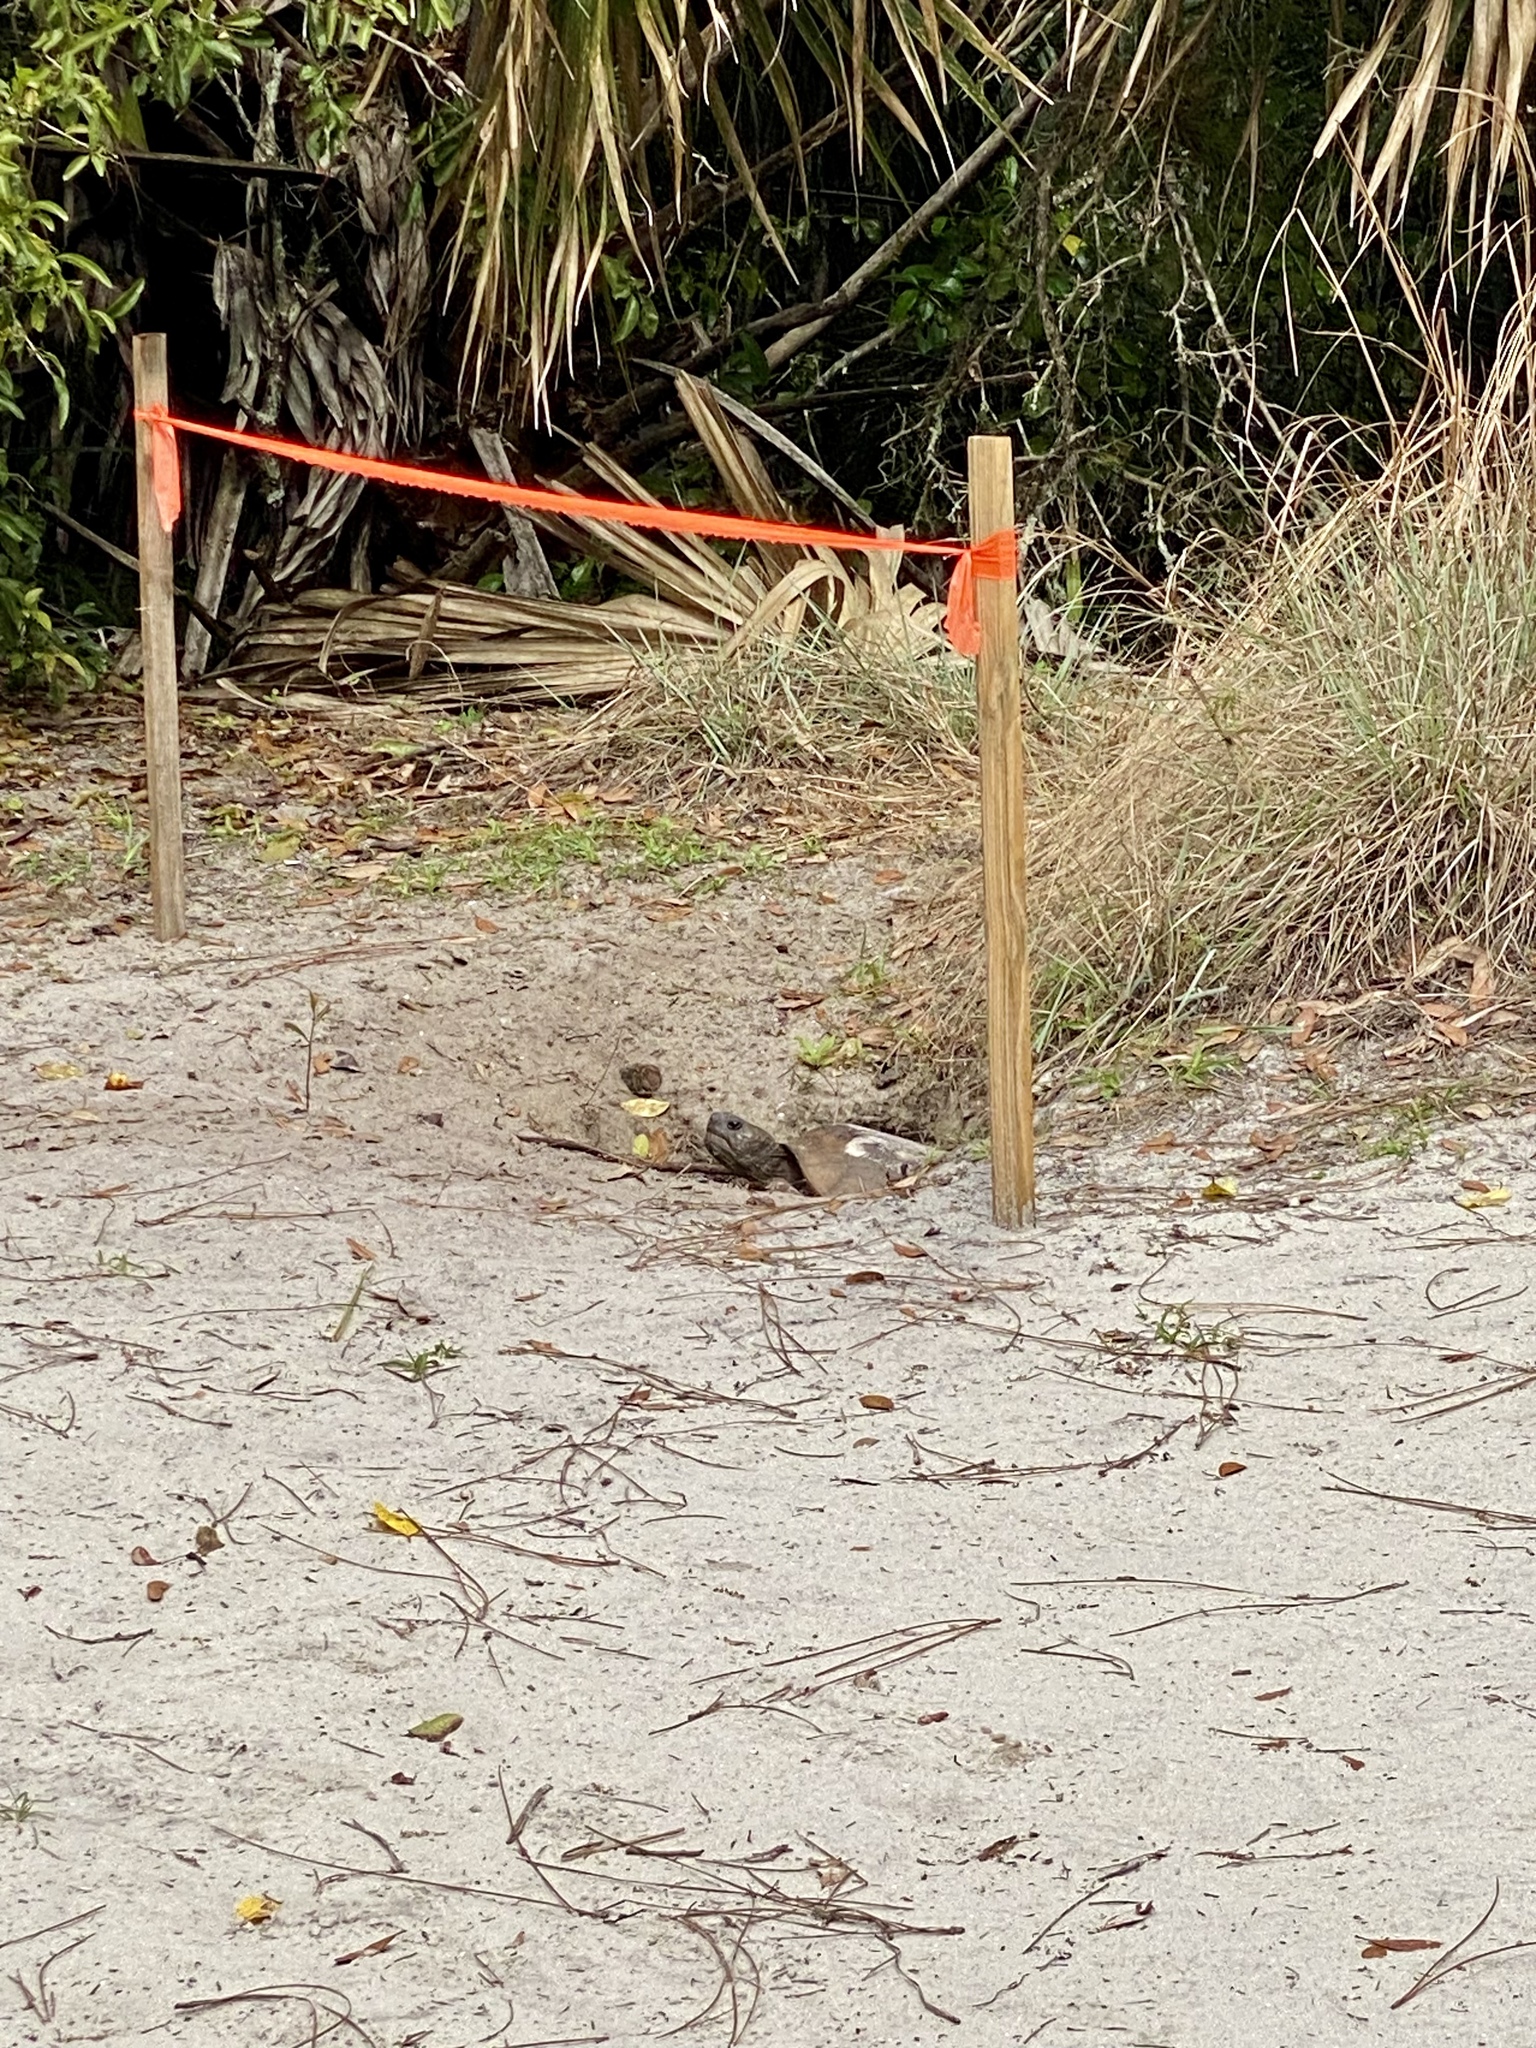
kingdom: Animalia
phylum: Chordata
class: Testudines
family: Testudinidae
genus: Gopherus
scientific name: Gopherus polyphemus
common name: Florida gopher tortoise
